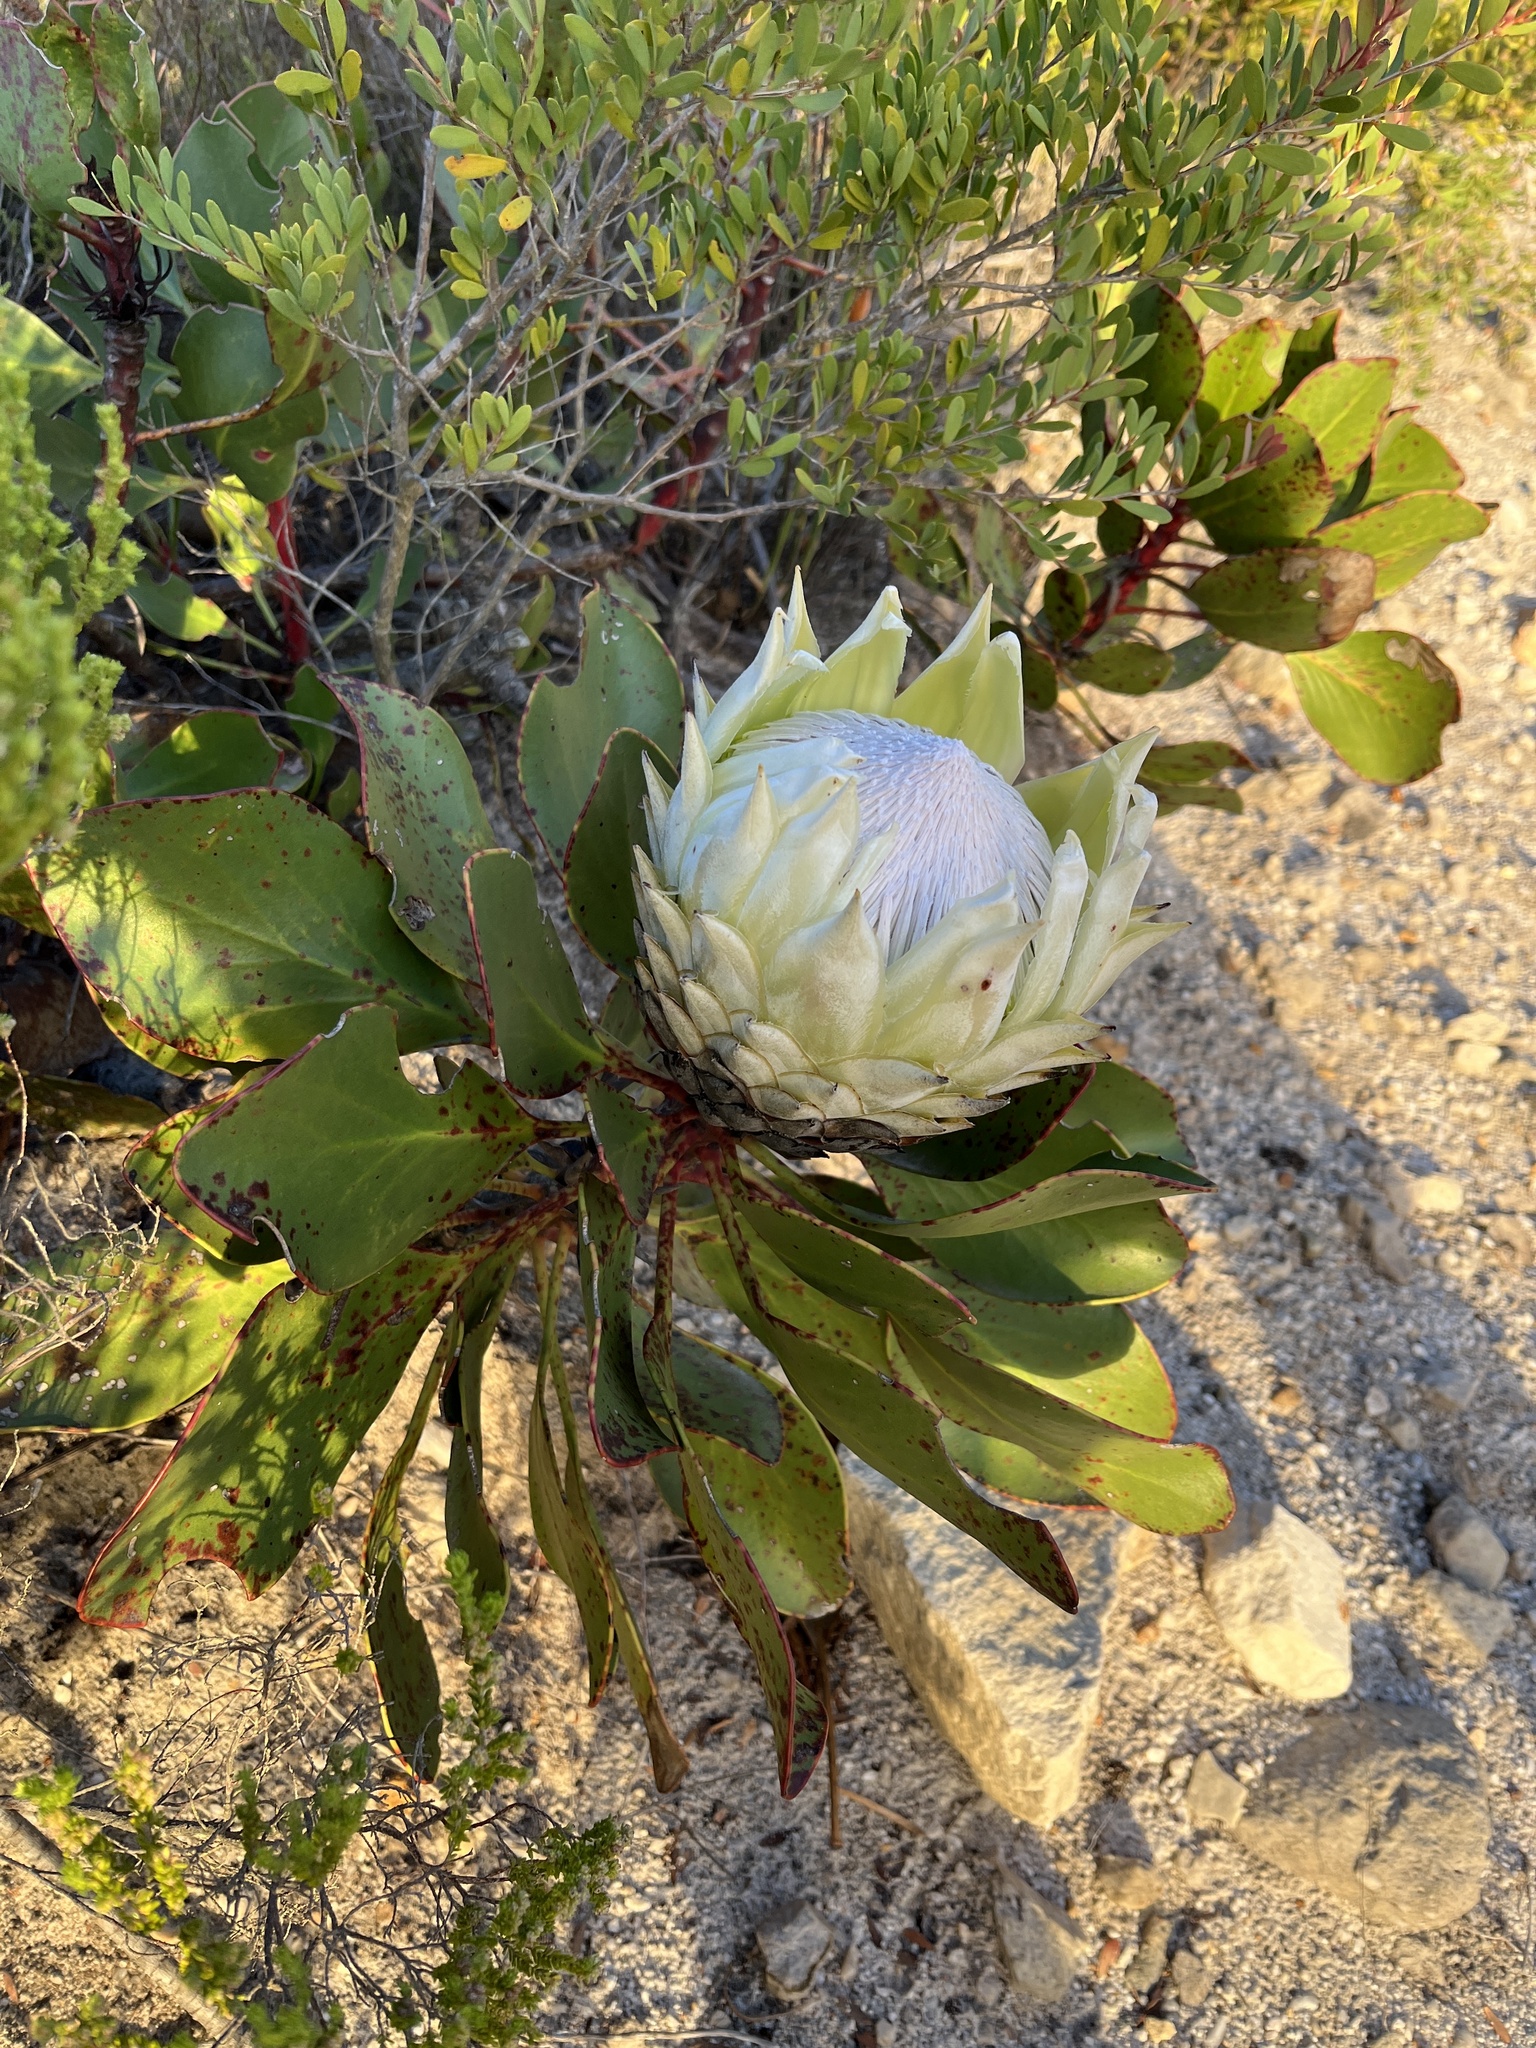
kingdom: Plantae
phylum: Tracheophyta
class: Magnoliopsida
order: Proteales
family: Proteaceae
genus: Protea
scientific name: Protea cynaroides
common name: King protea
